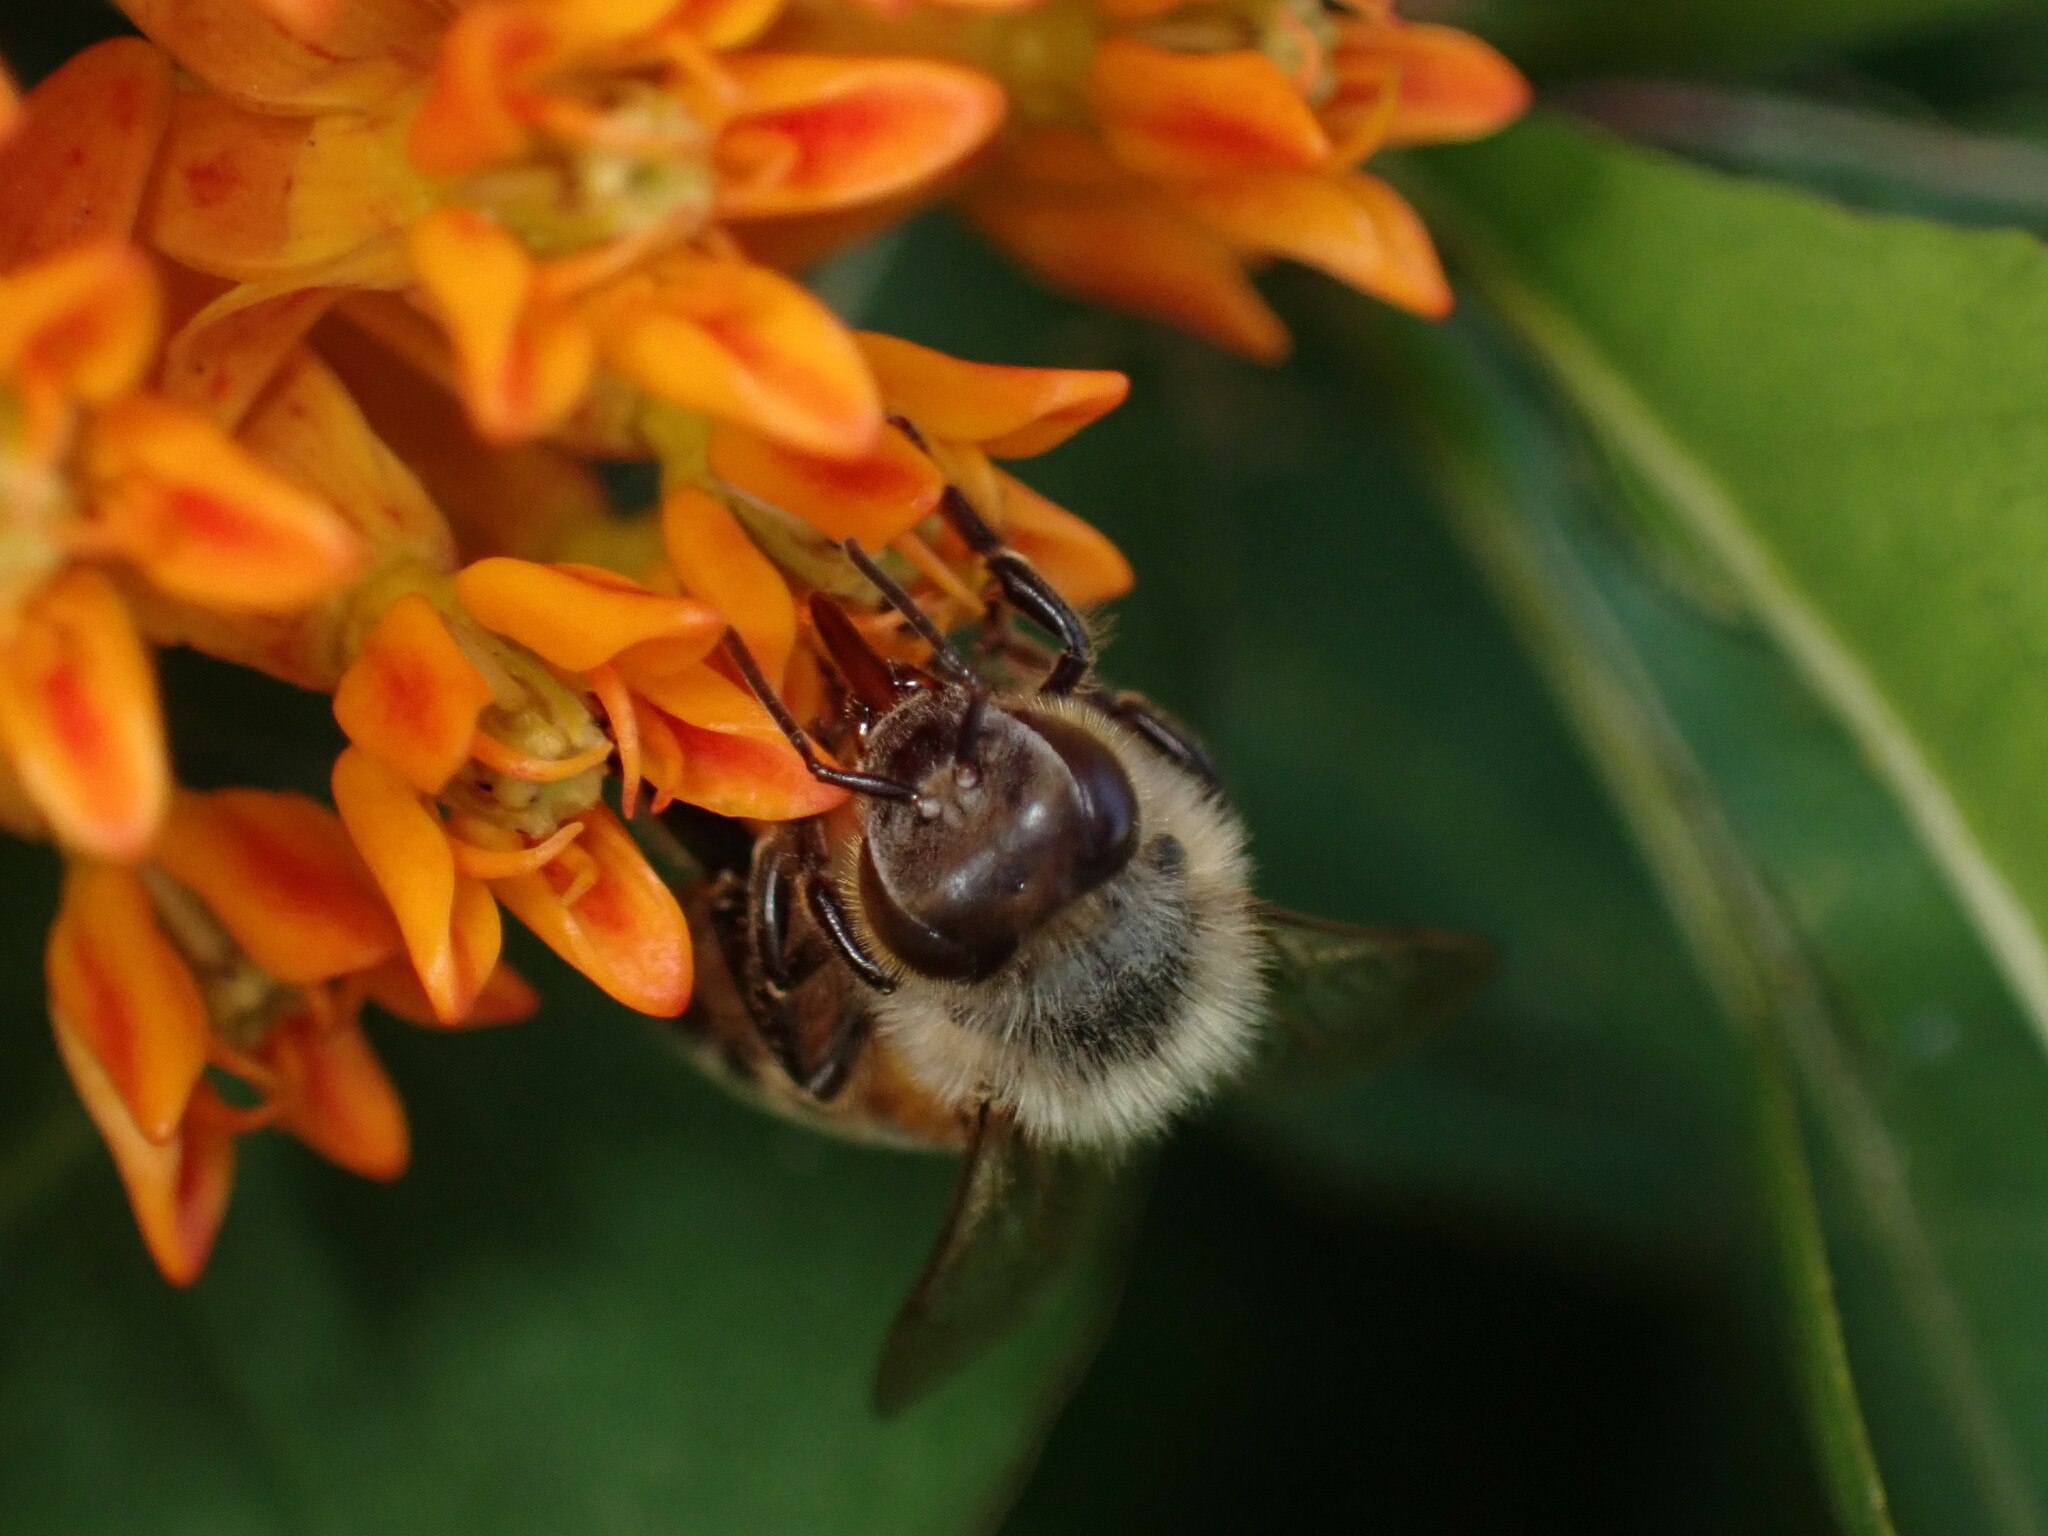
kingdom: Animalia
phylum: Arthropoda
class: Insecta
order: Hymenoptera
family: Apidae
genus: Apis
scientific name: Apis mellifera
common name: Honey bee
